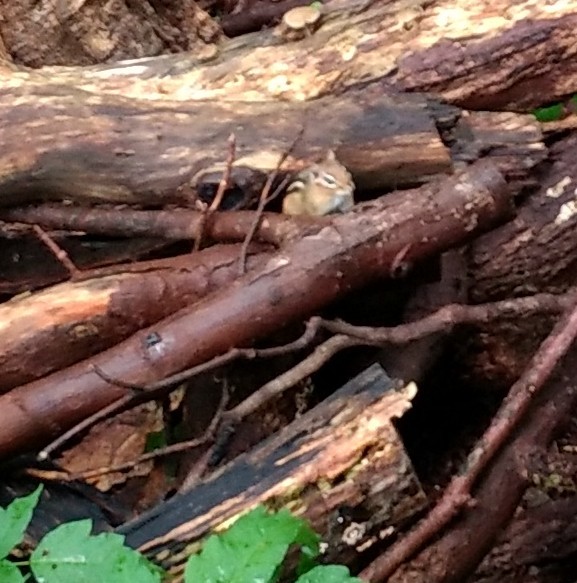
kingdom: Animalia
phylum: Chordata
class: Mammalia
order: Rodentia
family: Sciuridae
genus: Tamias
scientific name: Tamias striatus
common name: Eastern chipmunk
